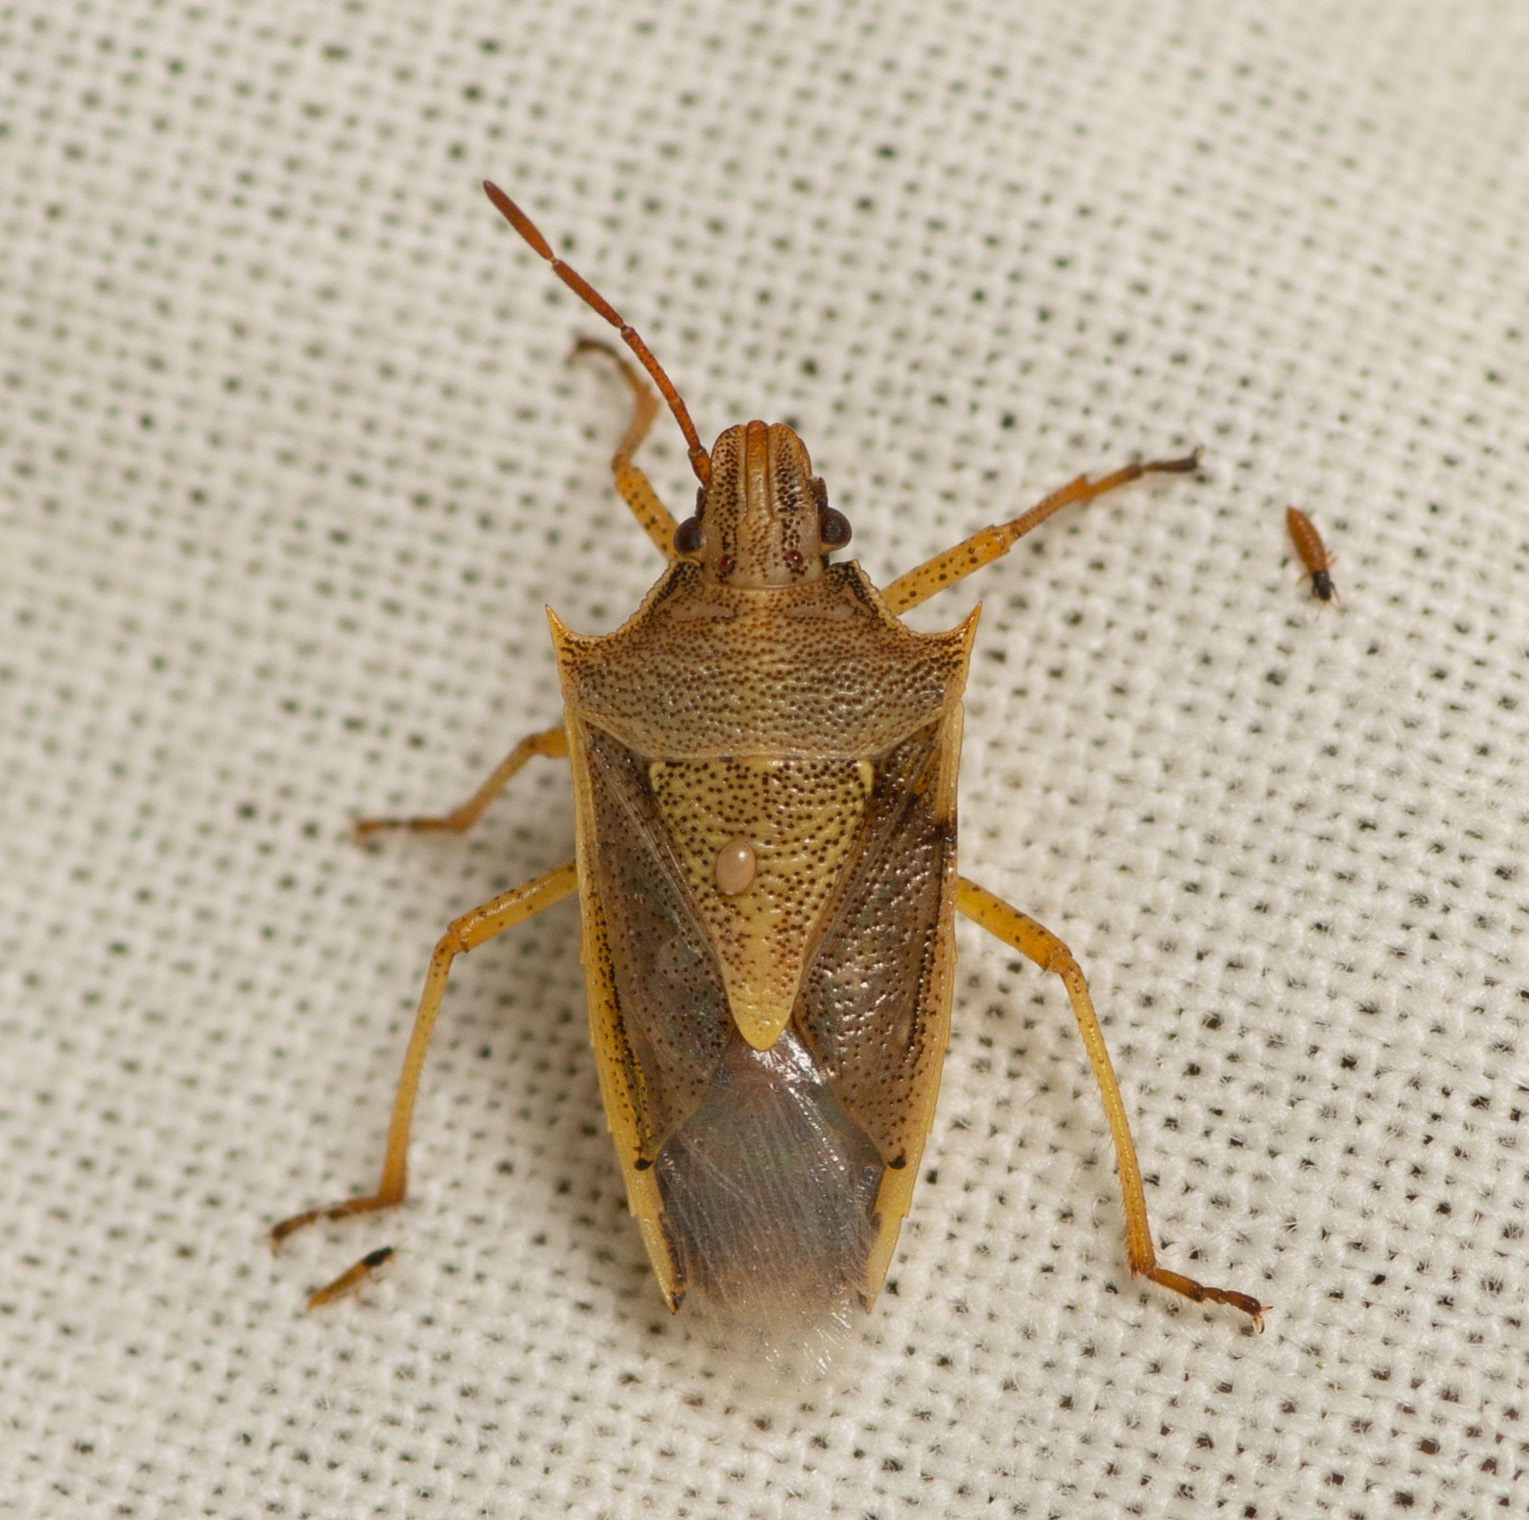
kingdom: Animalia
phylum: Arthropoda
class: Insecta
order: Hemiptera
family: Pentatomidae
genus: Oebalus
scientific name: Oebalus pugnax
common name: Rice stink bug
